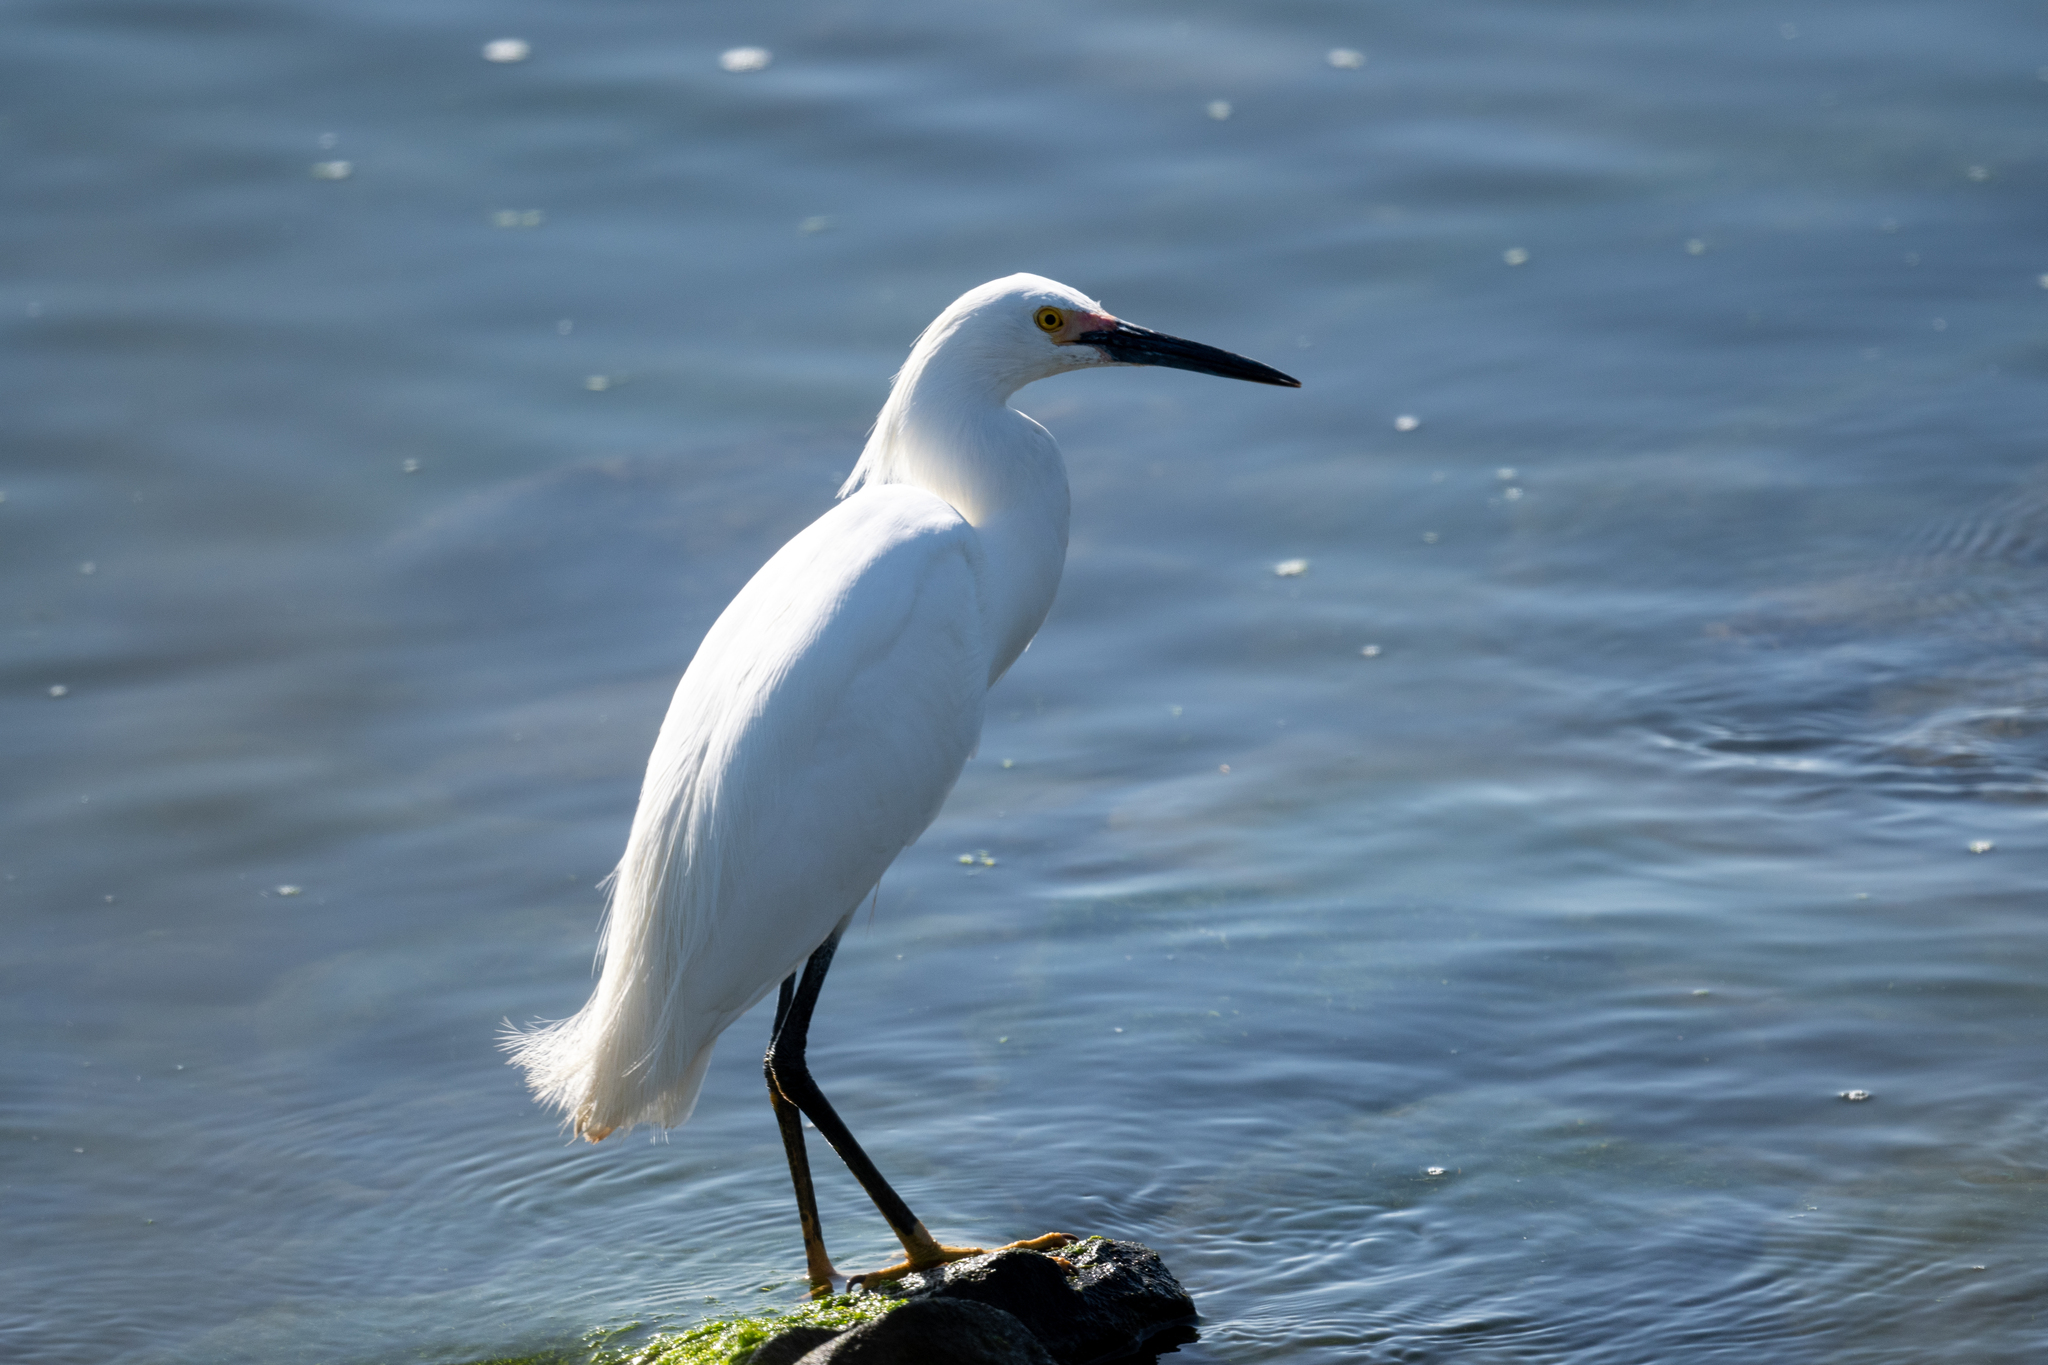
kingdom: Animalia
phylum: Chordata
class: Aves
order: Pelecaniformes
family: Ardeidae
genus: Egretta
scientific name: Egretta thula
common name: Snowy egret
